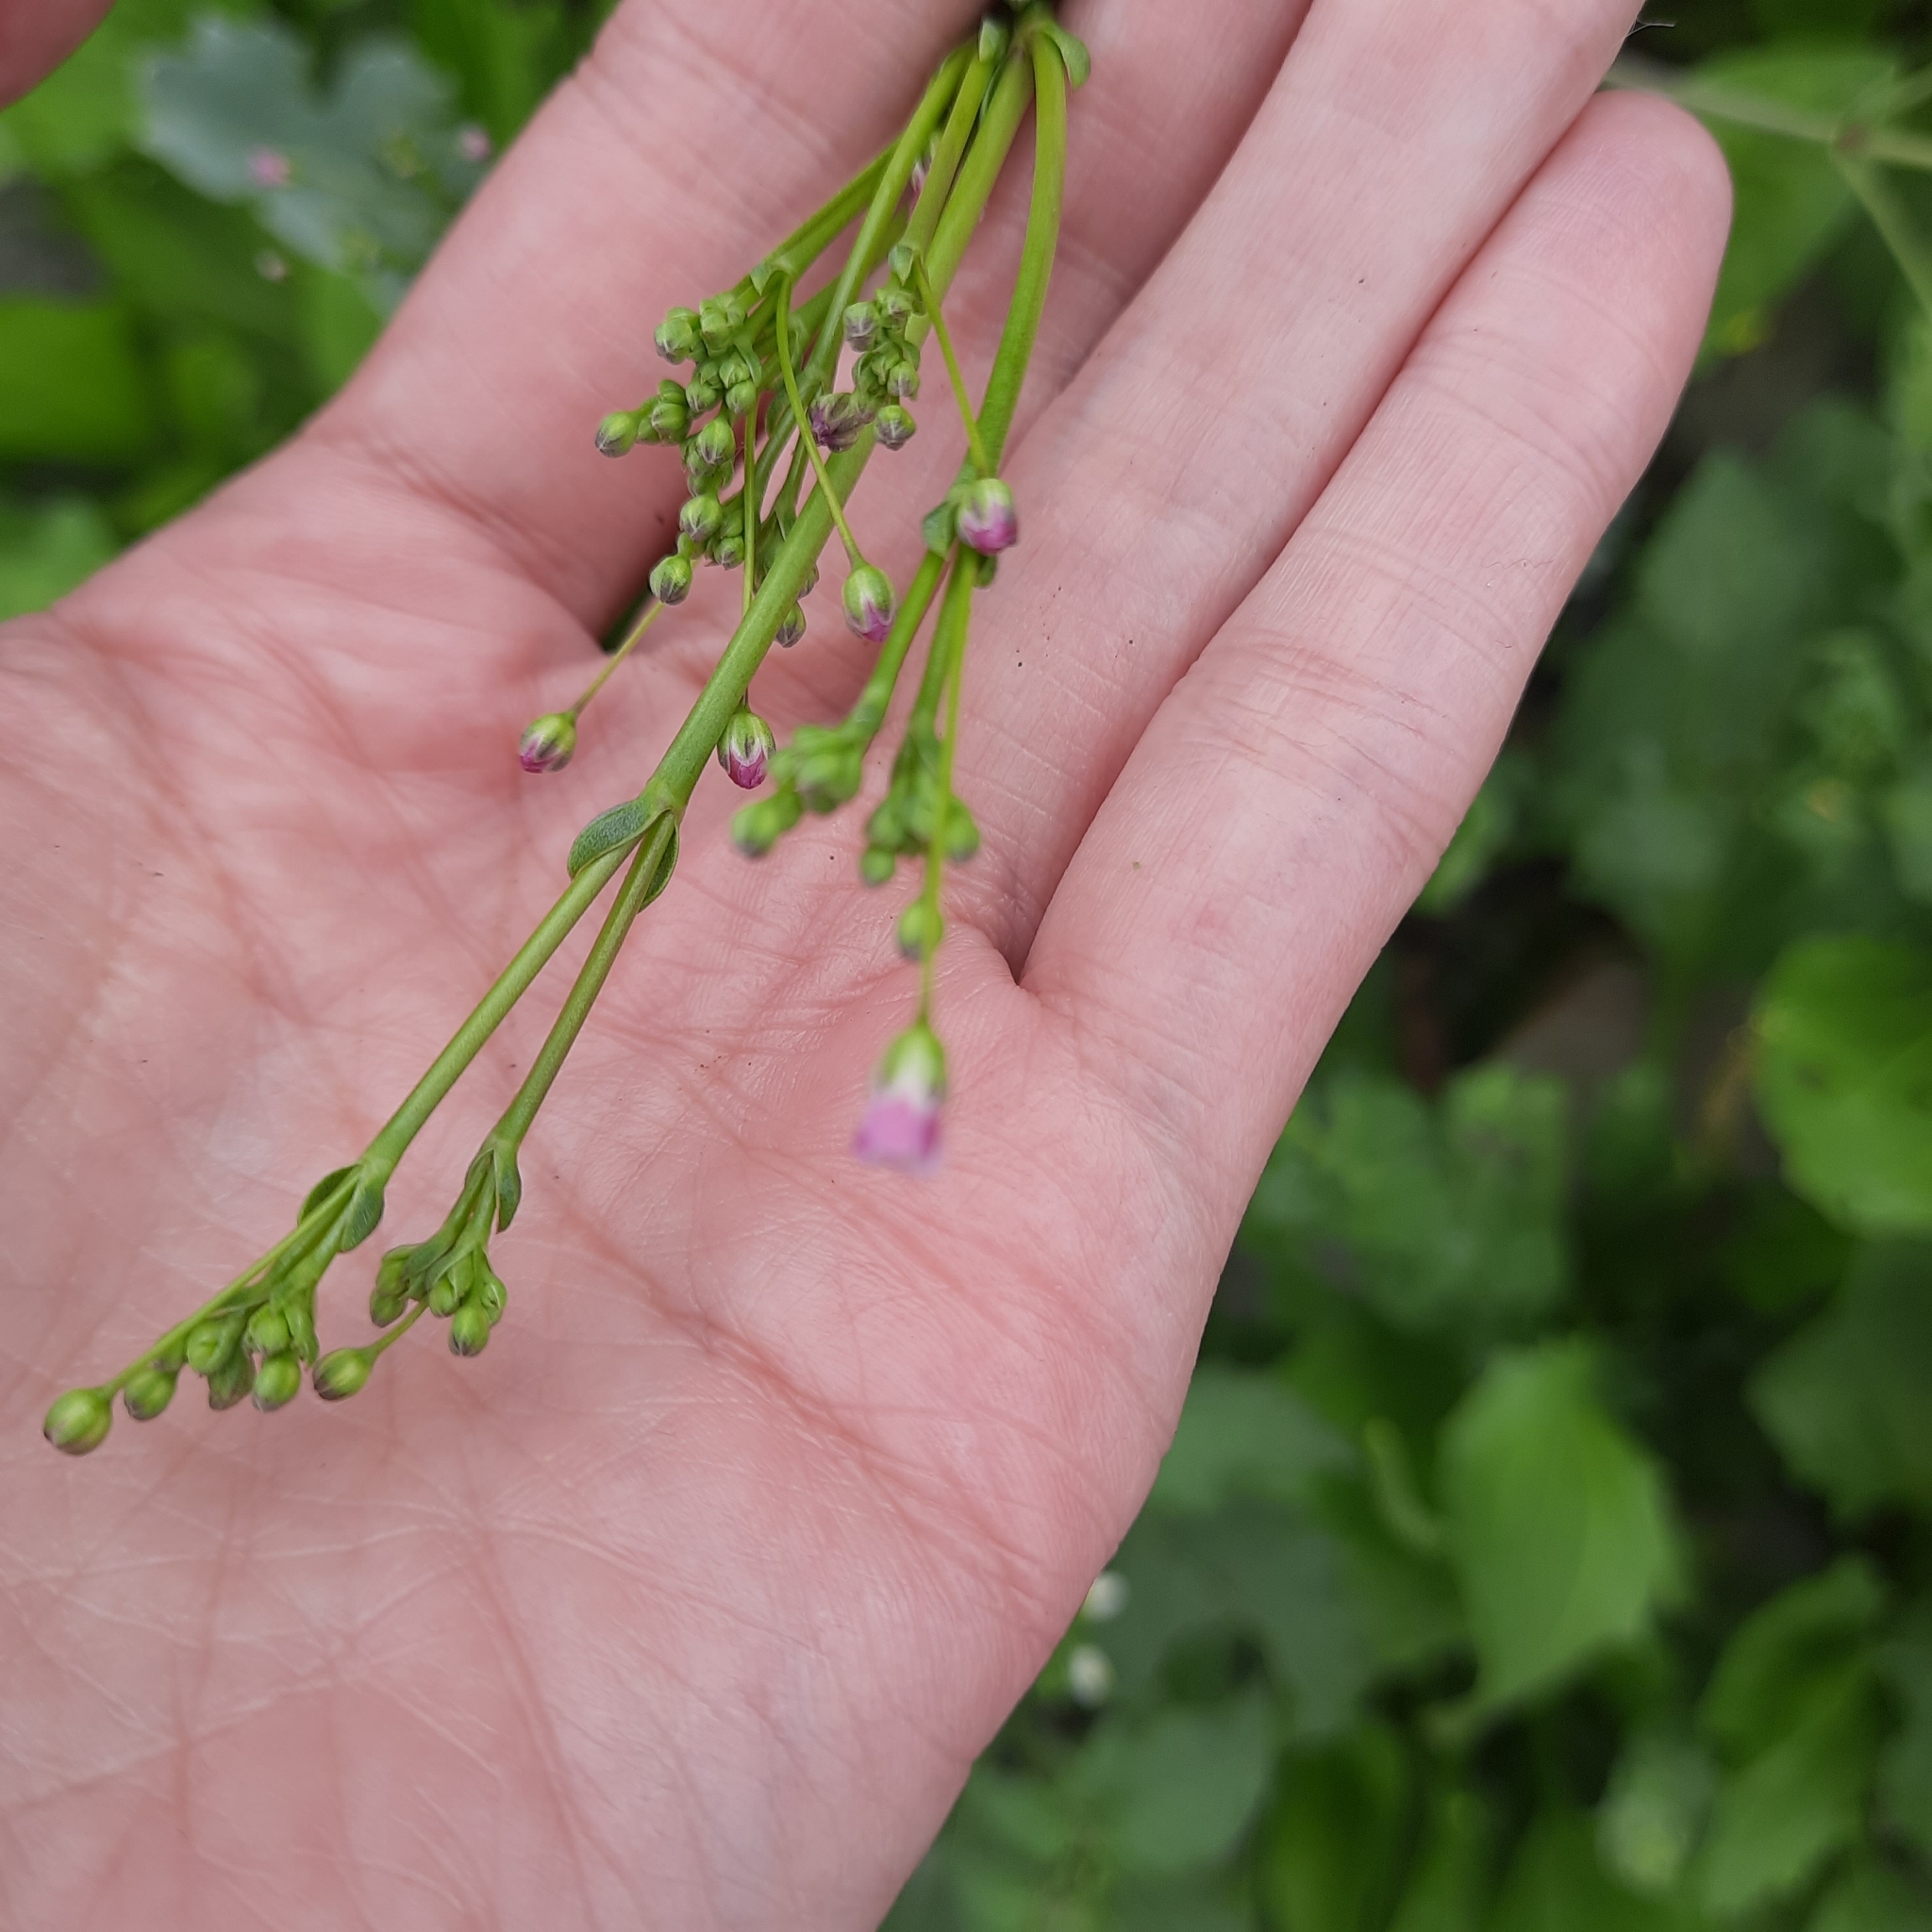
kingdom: Plantae
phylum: Tracheophyta
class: Magnoliopsida
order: Caryophyllales
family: Caryophyllaceae
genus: Gypsophila
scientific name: Gypsophila perfoliata
